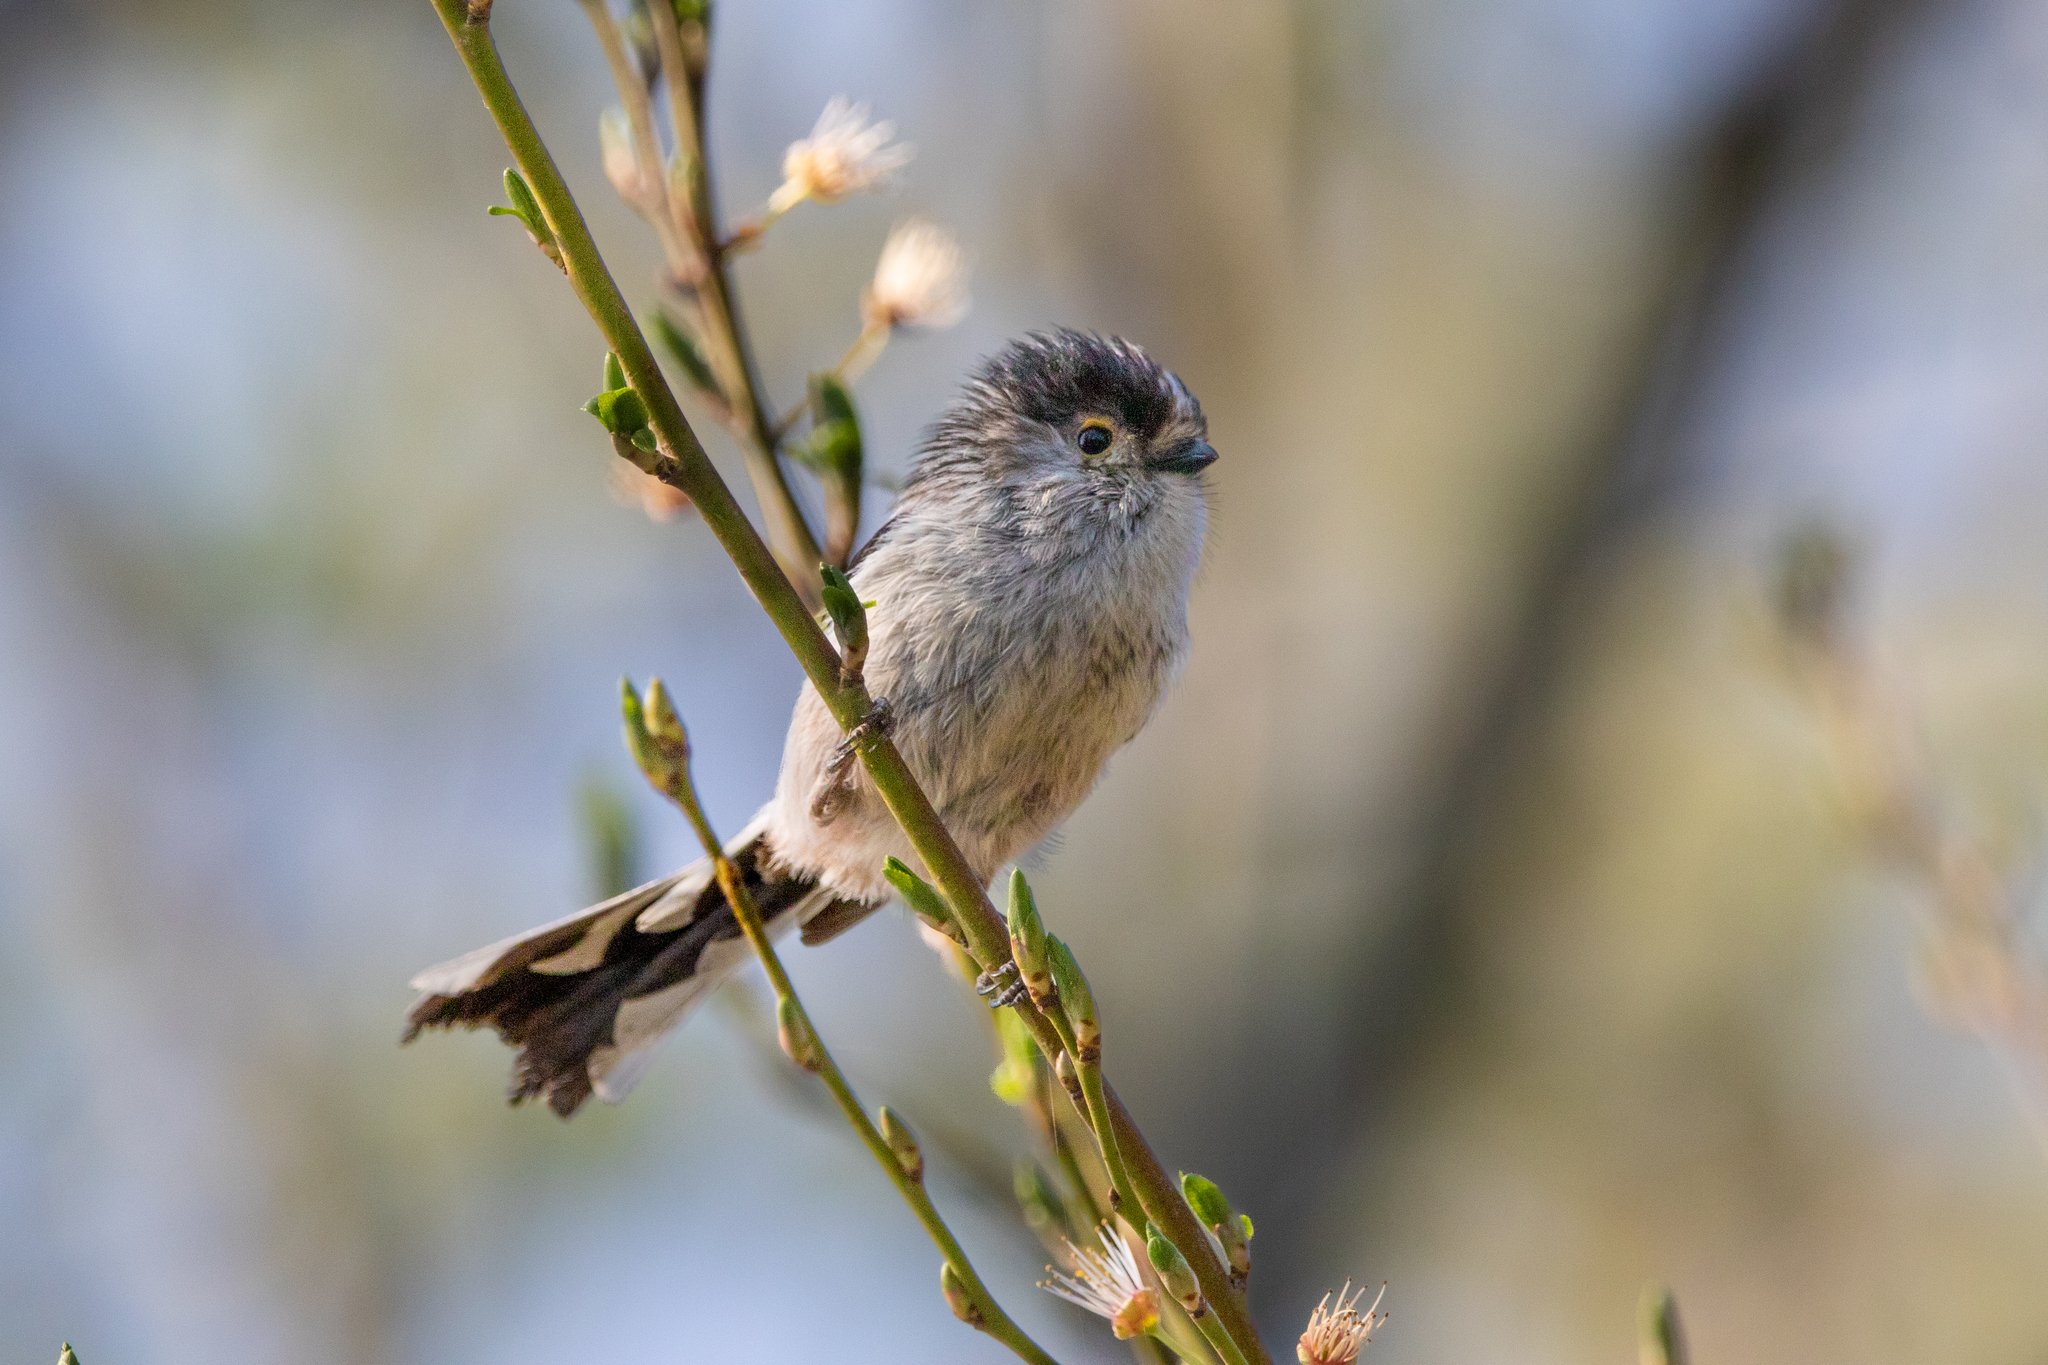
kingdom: Animalia
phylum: Chordata
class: Aves
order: Passeriformes
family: Aegithalidae
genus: Aegithalos
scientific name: Aegithalos caudatus
